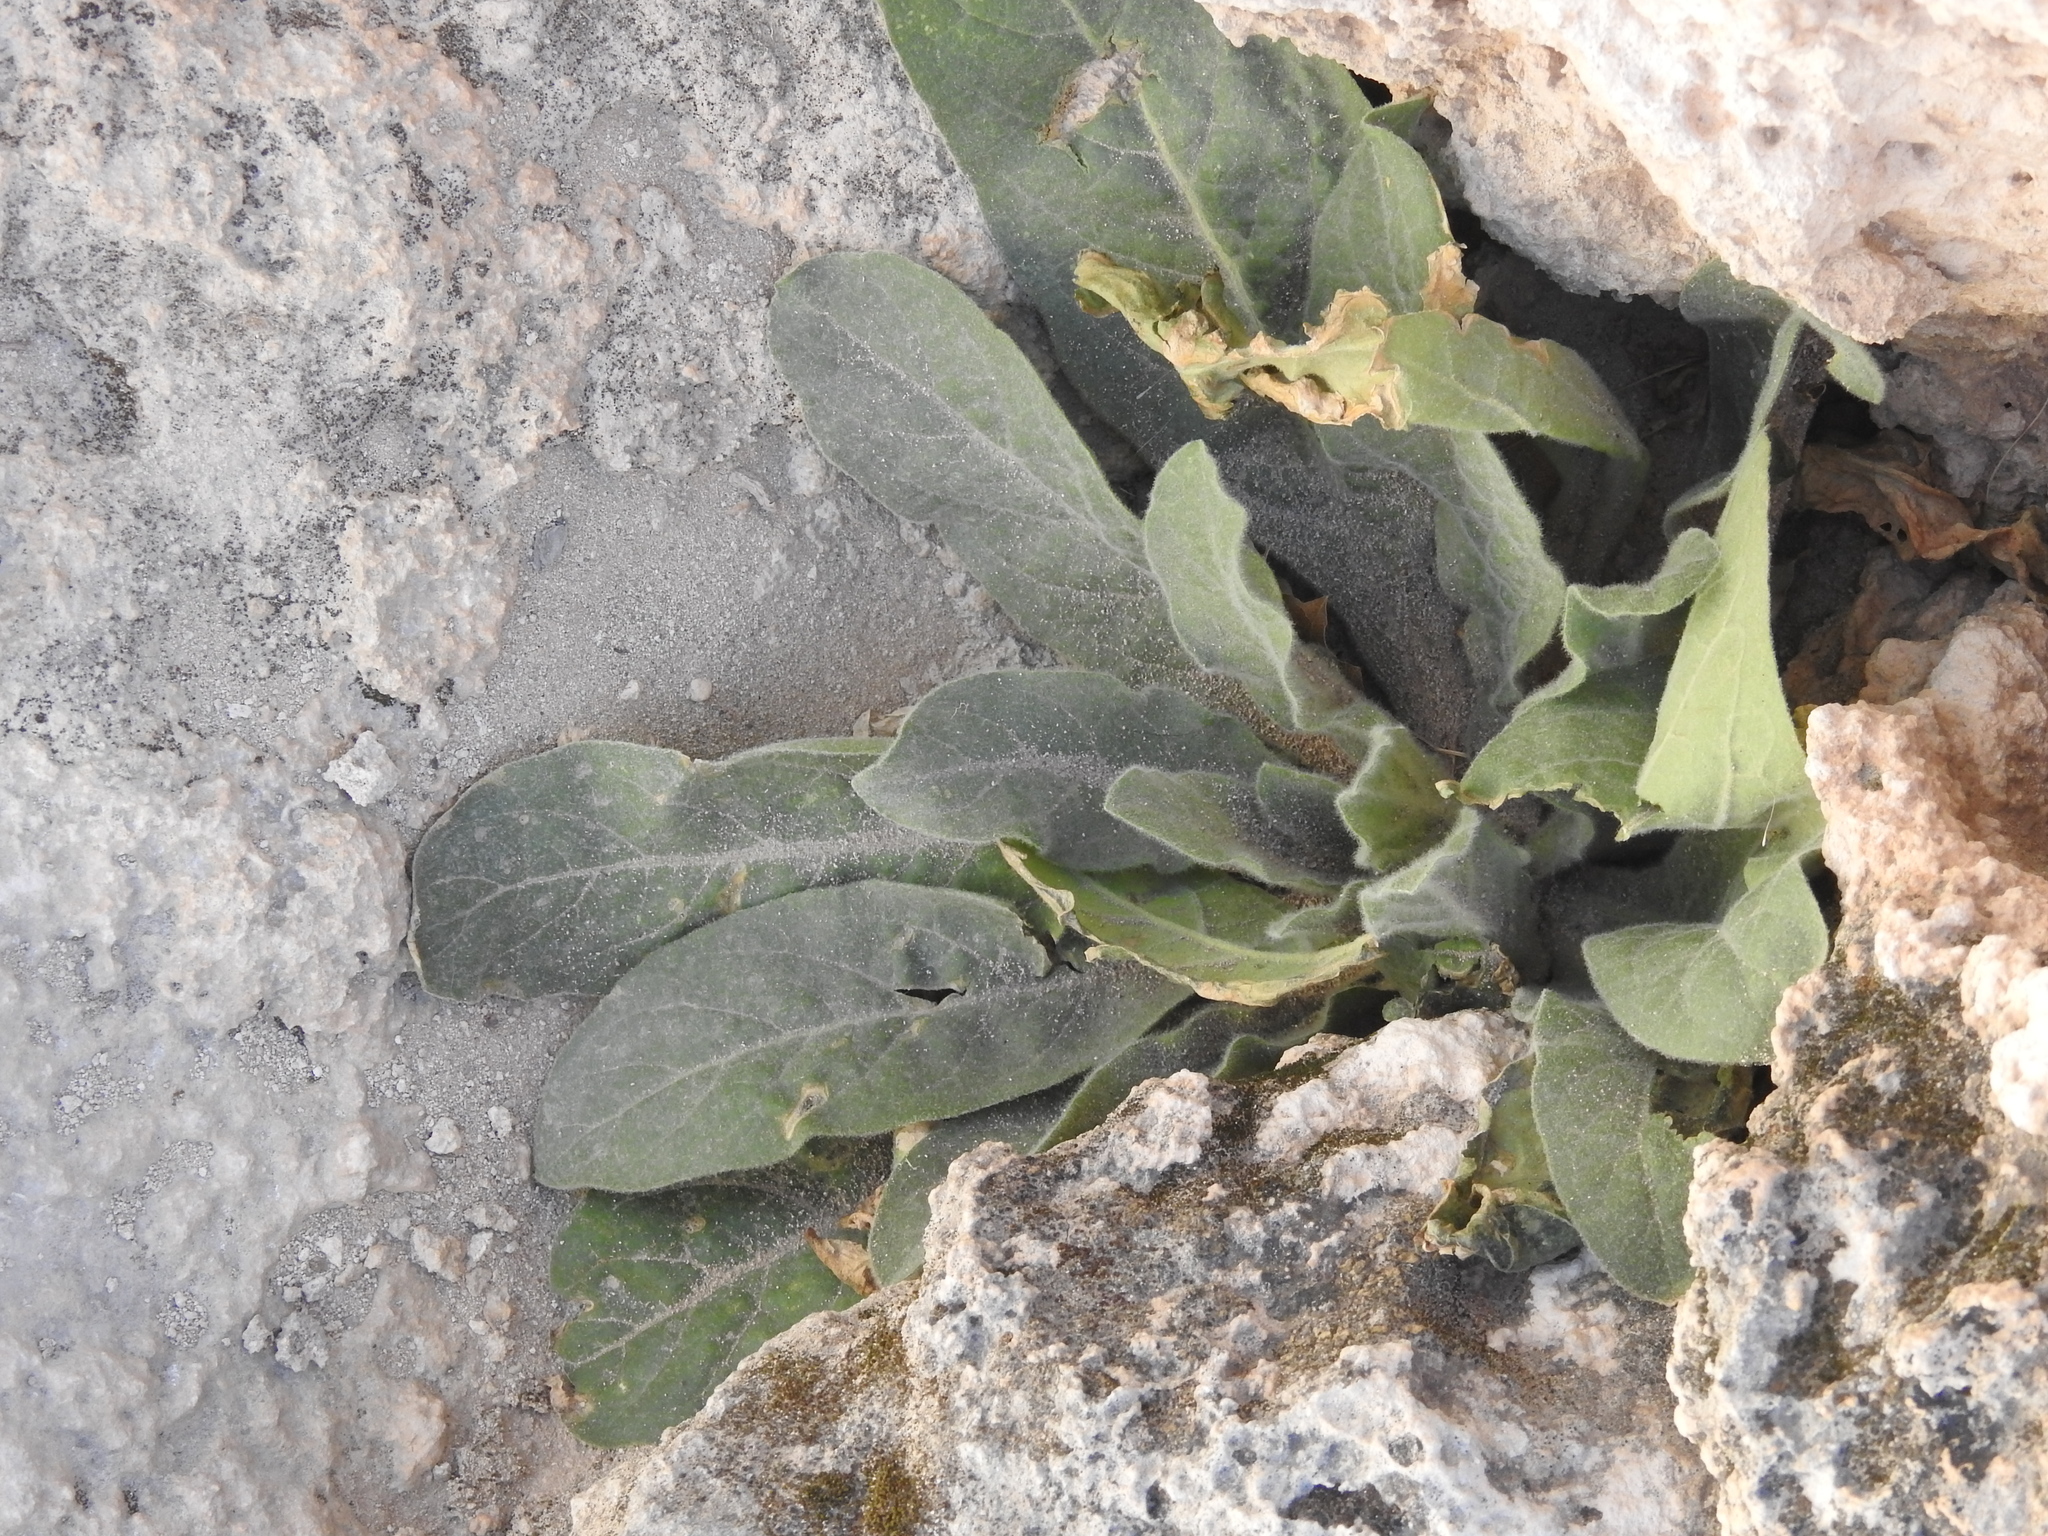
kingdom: Plantae
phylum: Tracheophyta
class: Magnoliopsida
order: Lamiales
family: Scrophulariaceae
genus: Verbascum
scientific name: Verbascum thapsus
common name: Common mullein
